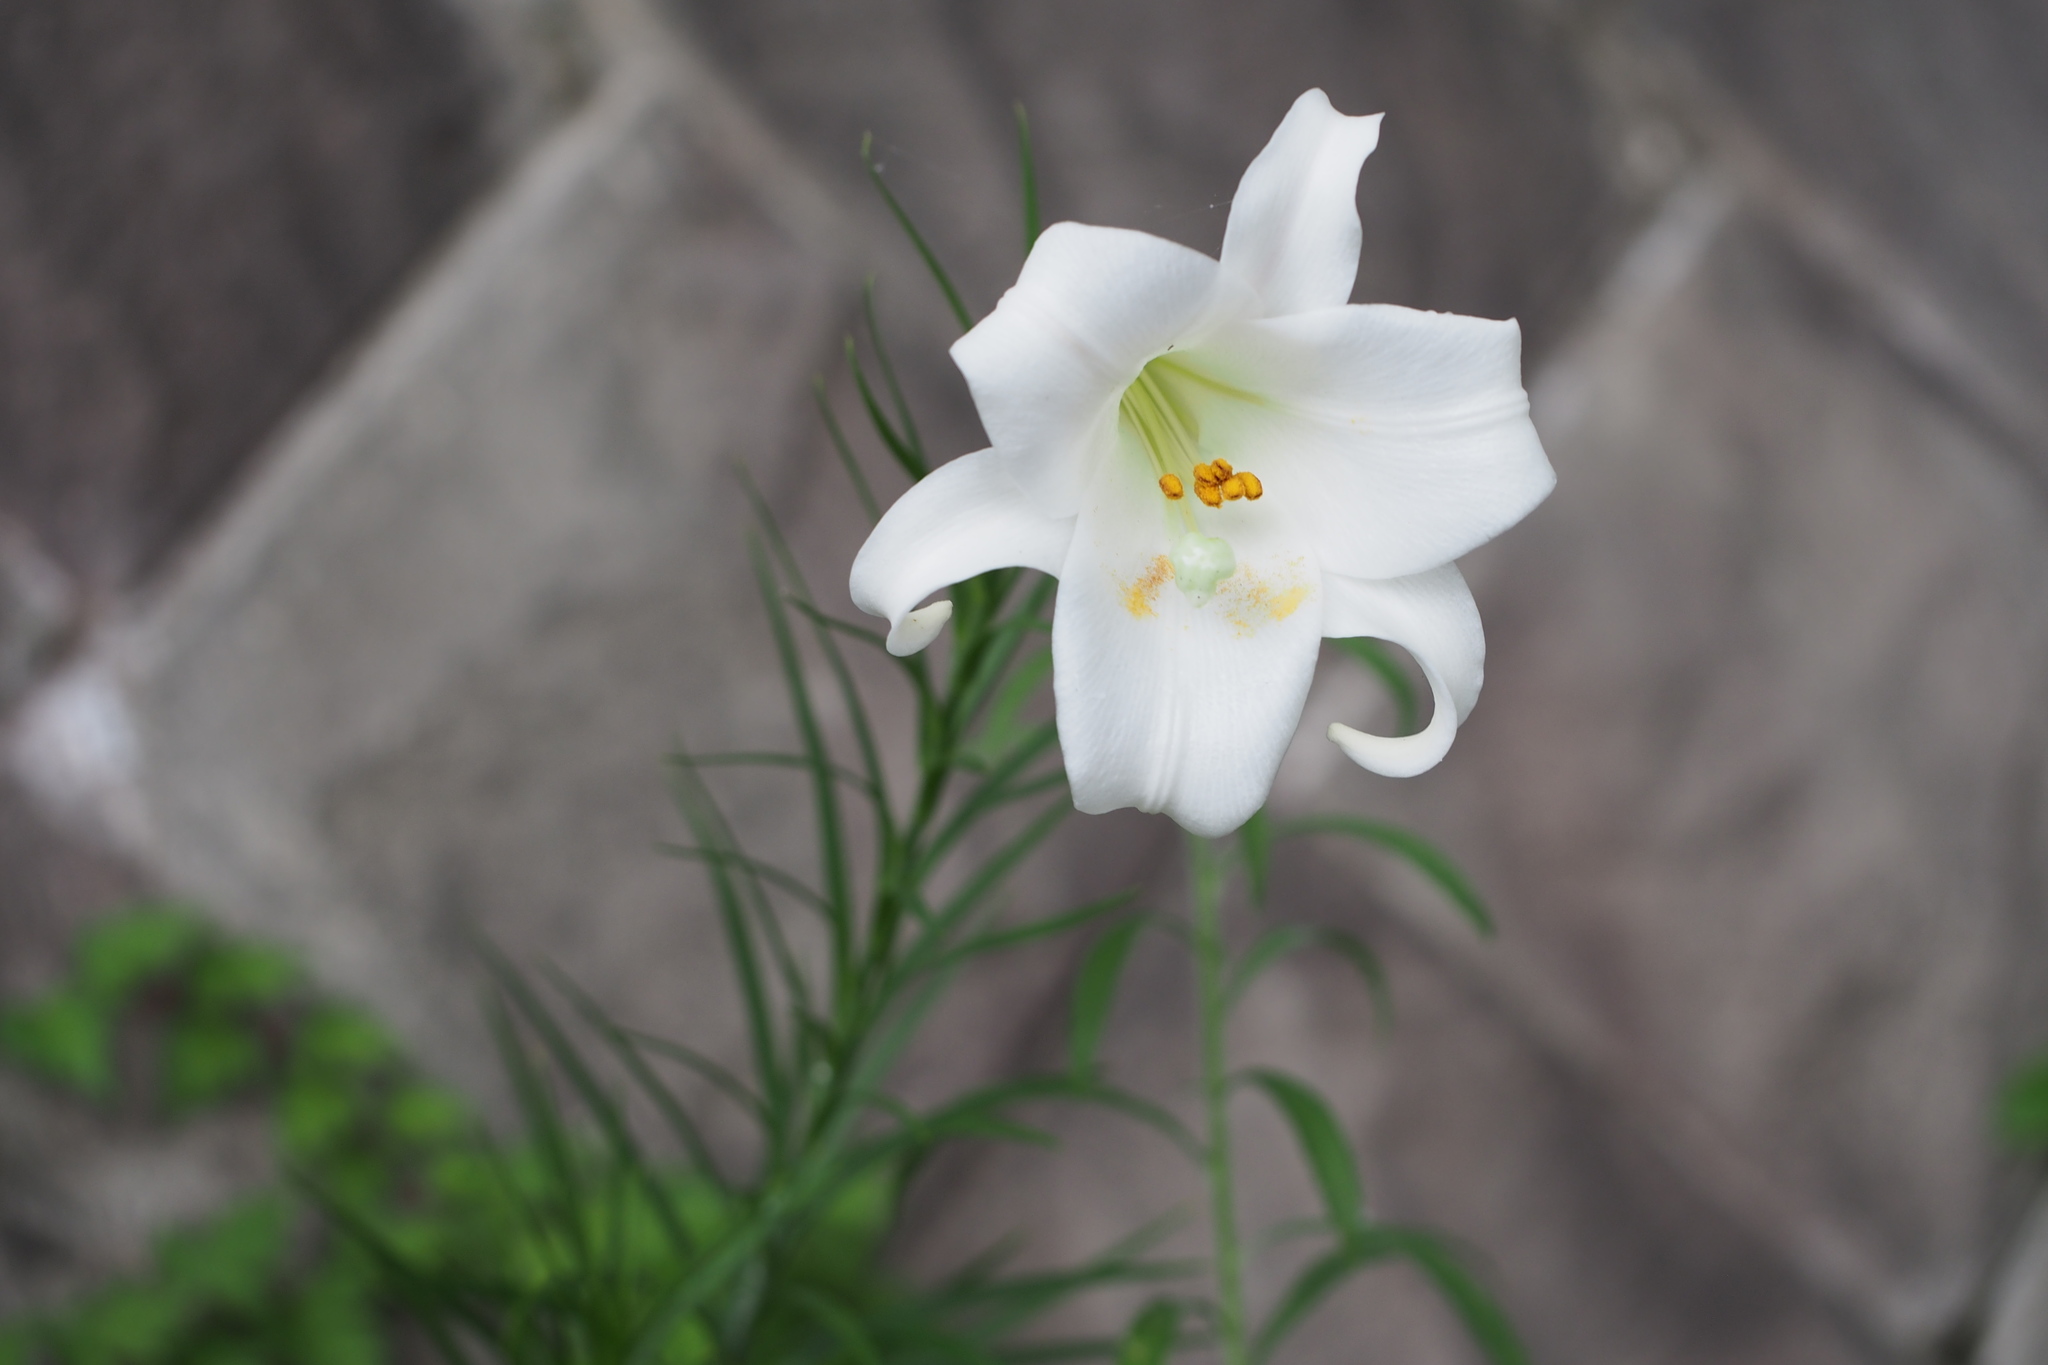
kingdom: Plantae
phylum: Tracheophyta
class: Liliopsida
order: Liliales
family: Liliaceae
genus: Lilium
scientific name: Lilium formosanum
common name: Formosa lily
